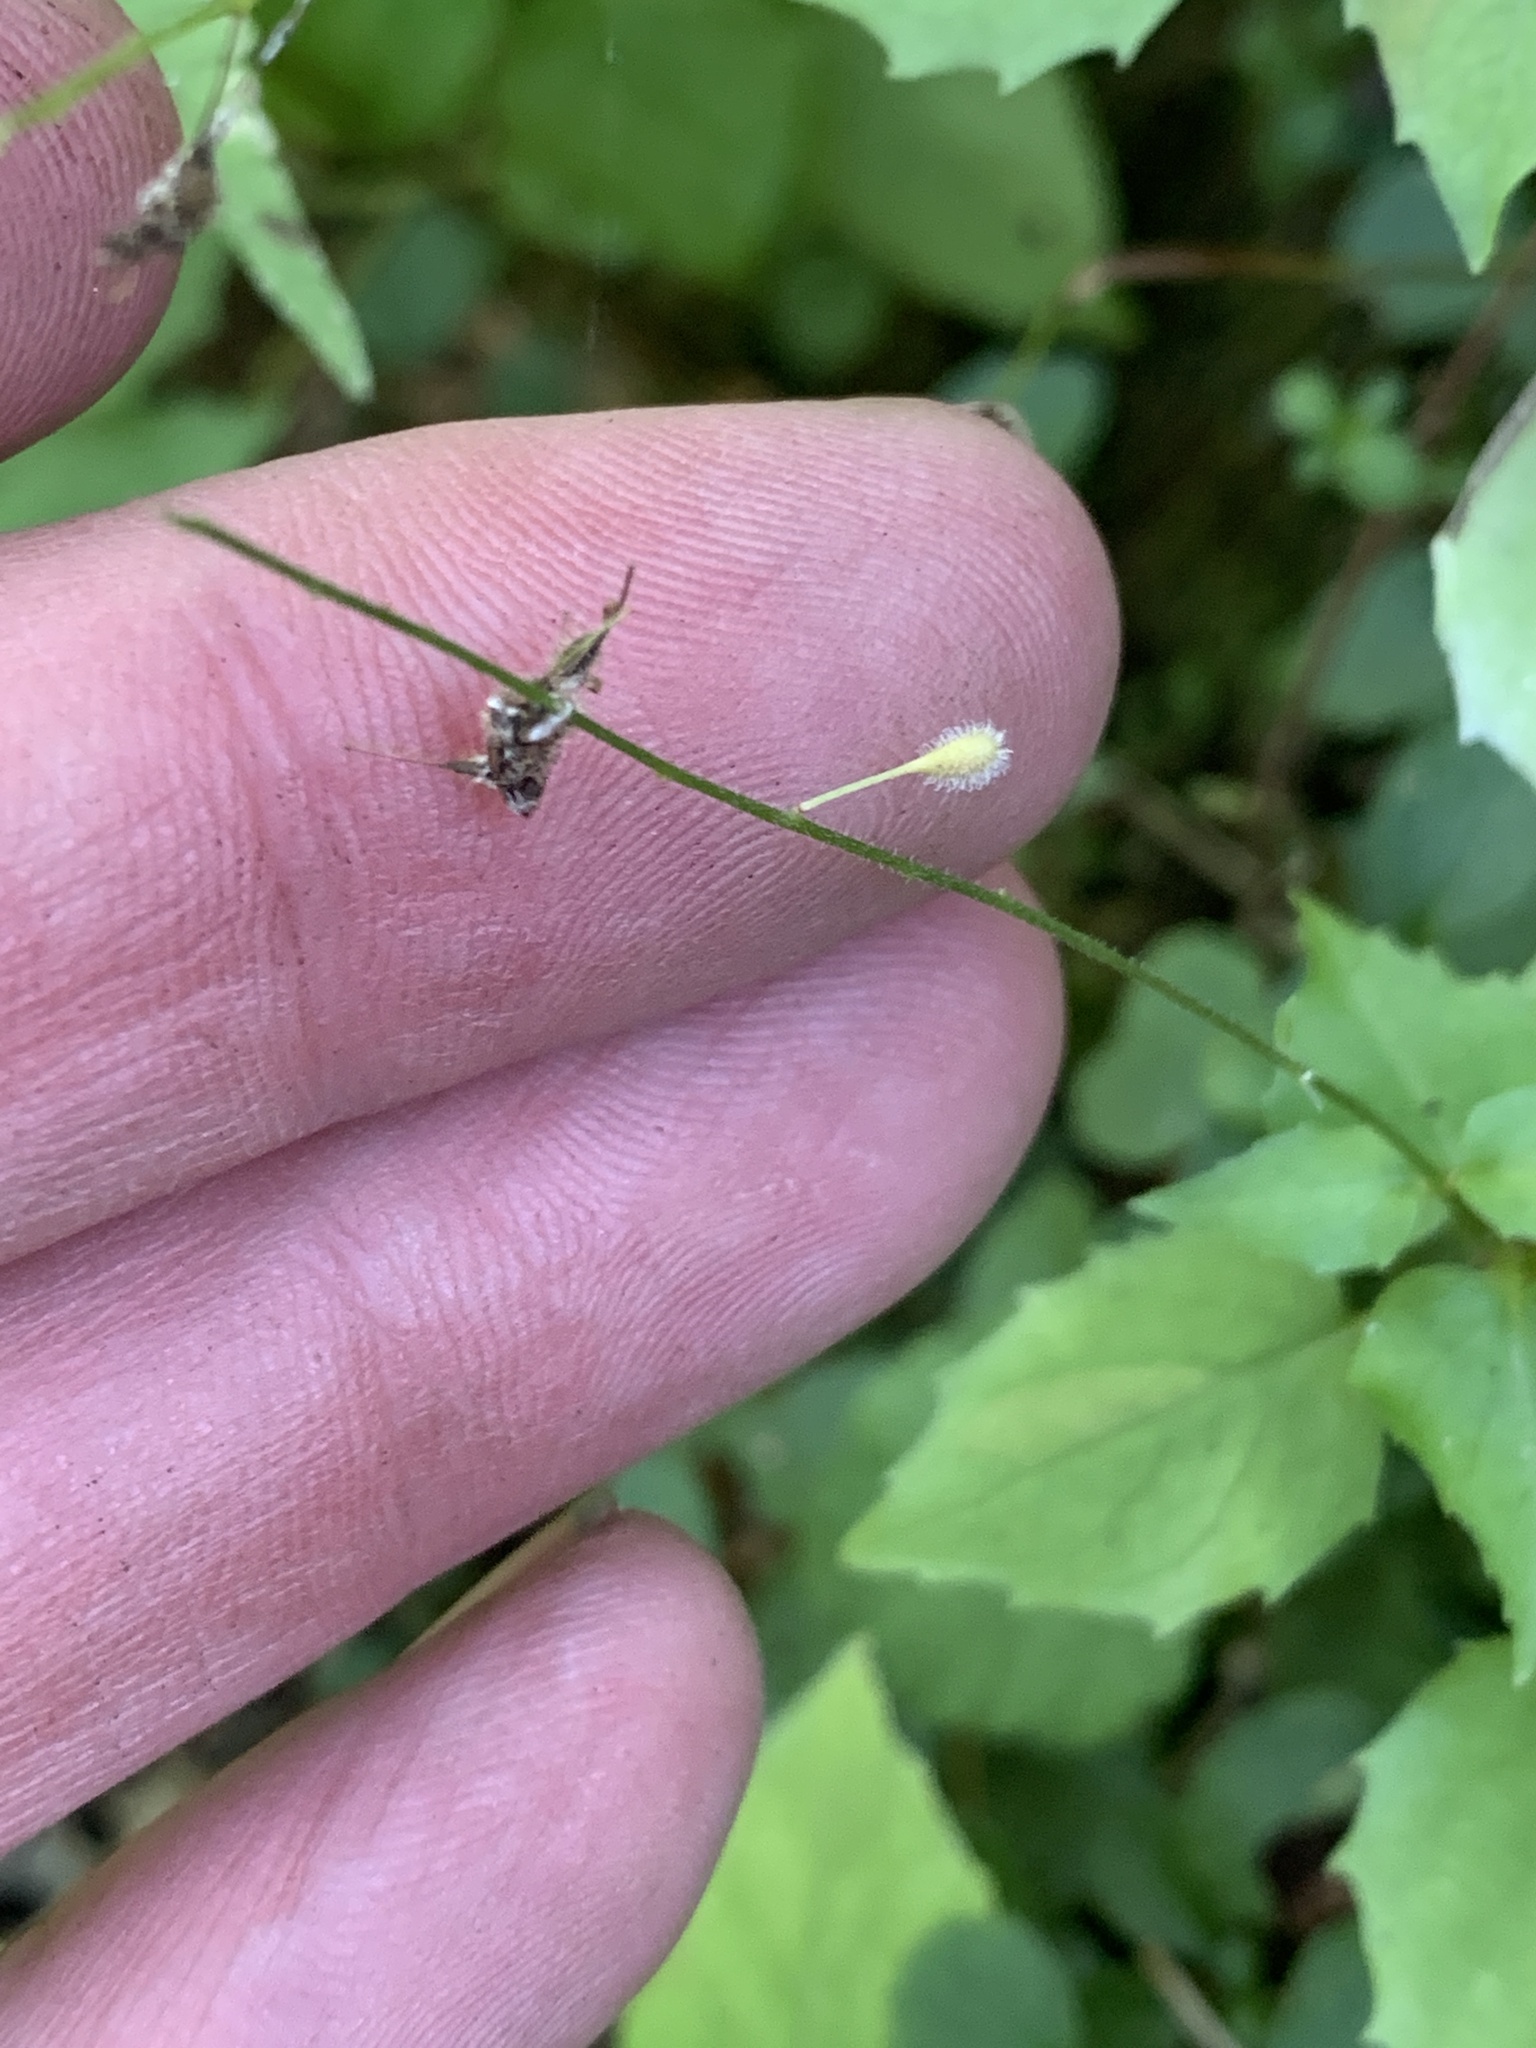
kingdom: Plantae
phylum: Tracheophyta
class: Magnoliopsida
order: Myrtales
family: Onagraceae
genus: Circaea
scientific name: Circaea alpina
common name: Alpine enchanter's-nightshade
